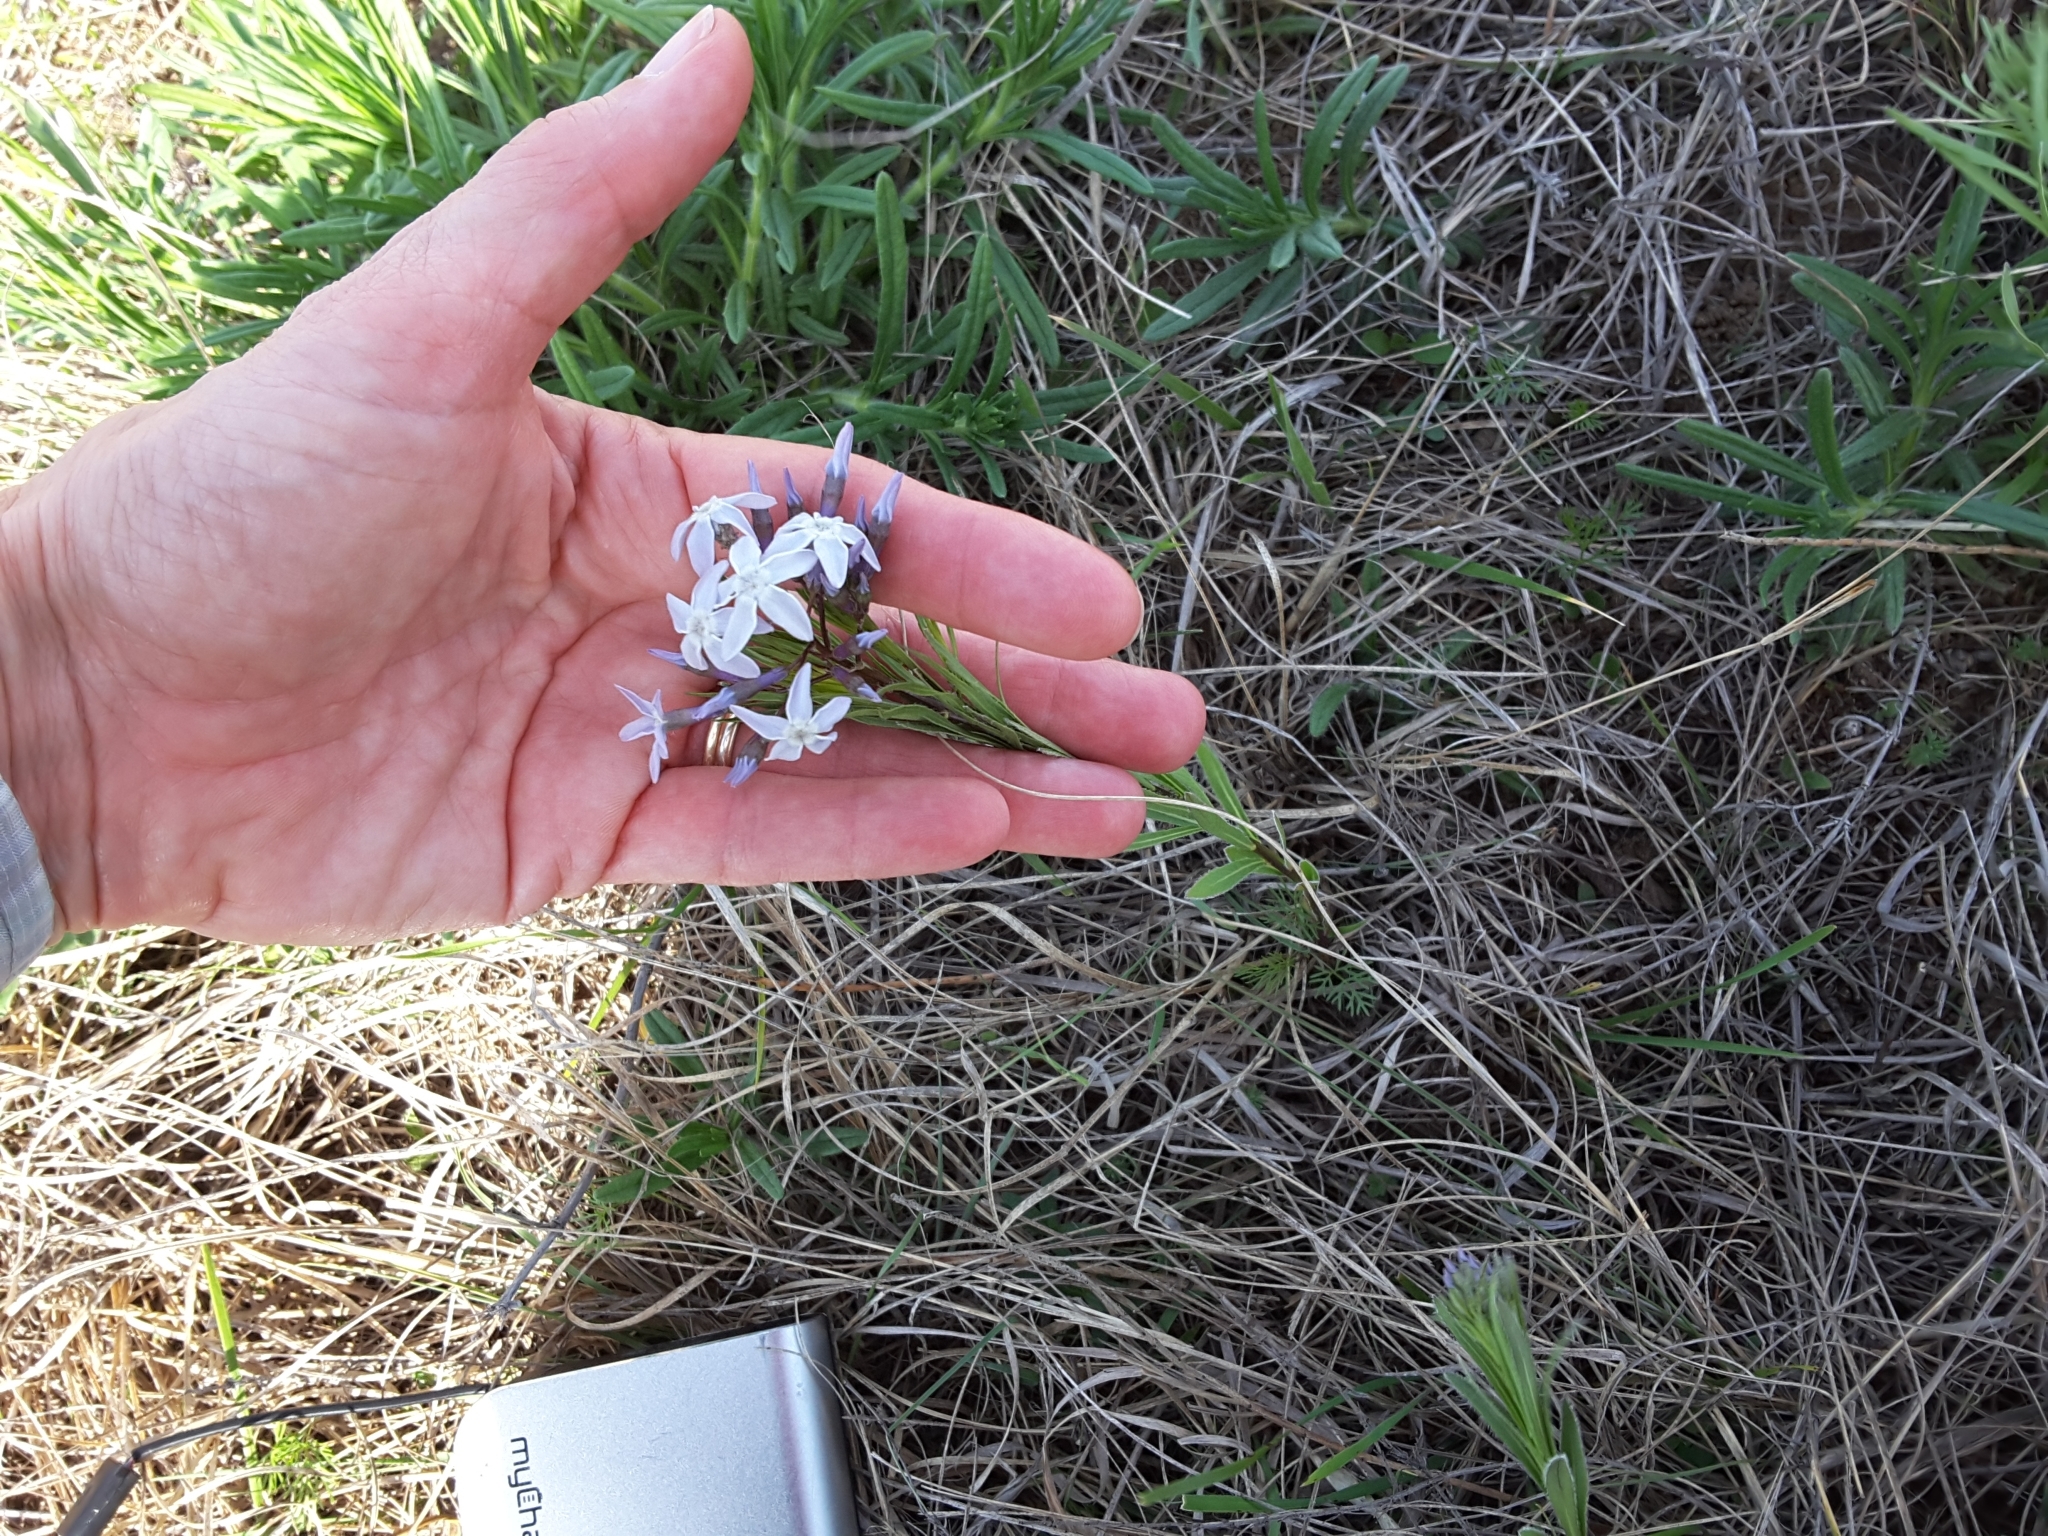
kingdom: Plantae
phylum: Tracheophyta
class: Magnoliopsida
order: Gentianales
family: Apocynaceae
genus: Amsonia
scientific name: Amsonia ciliata
